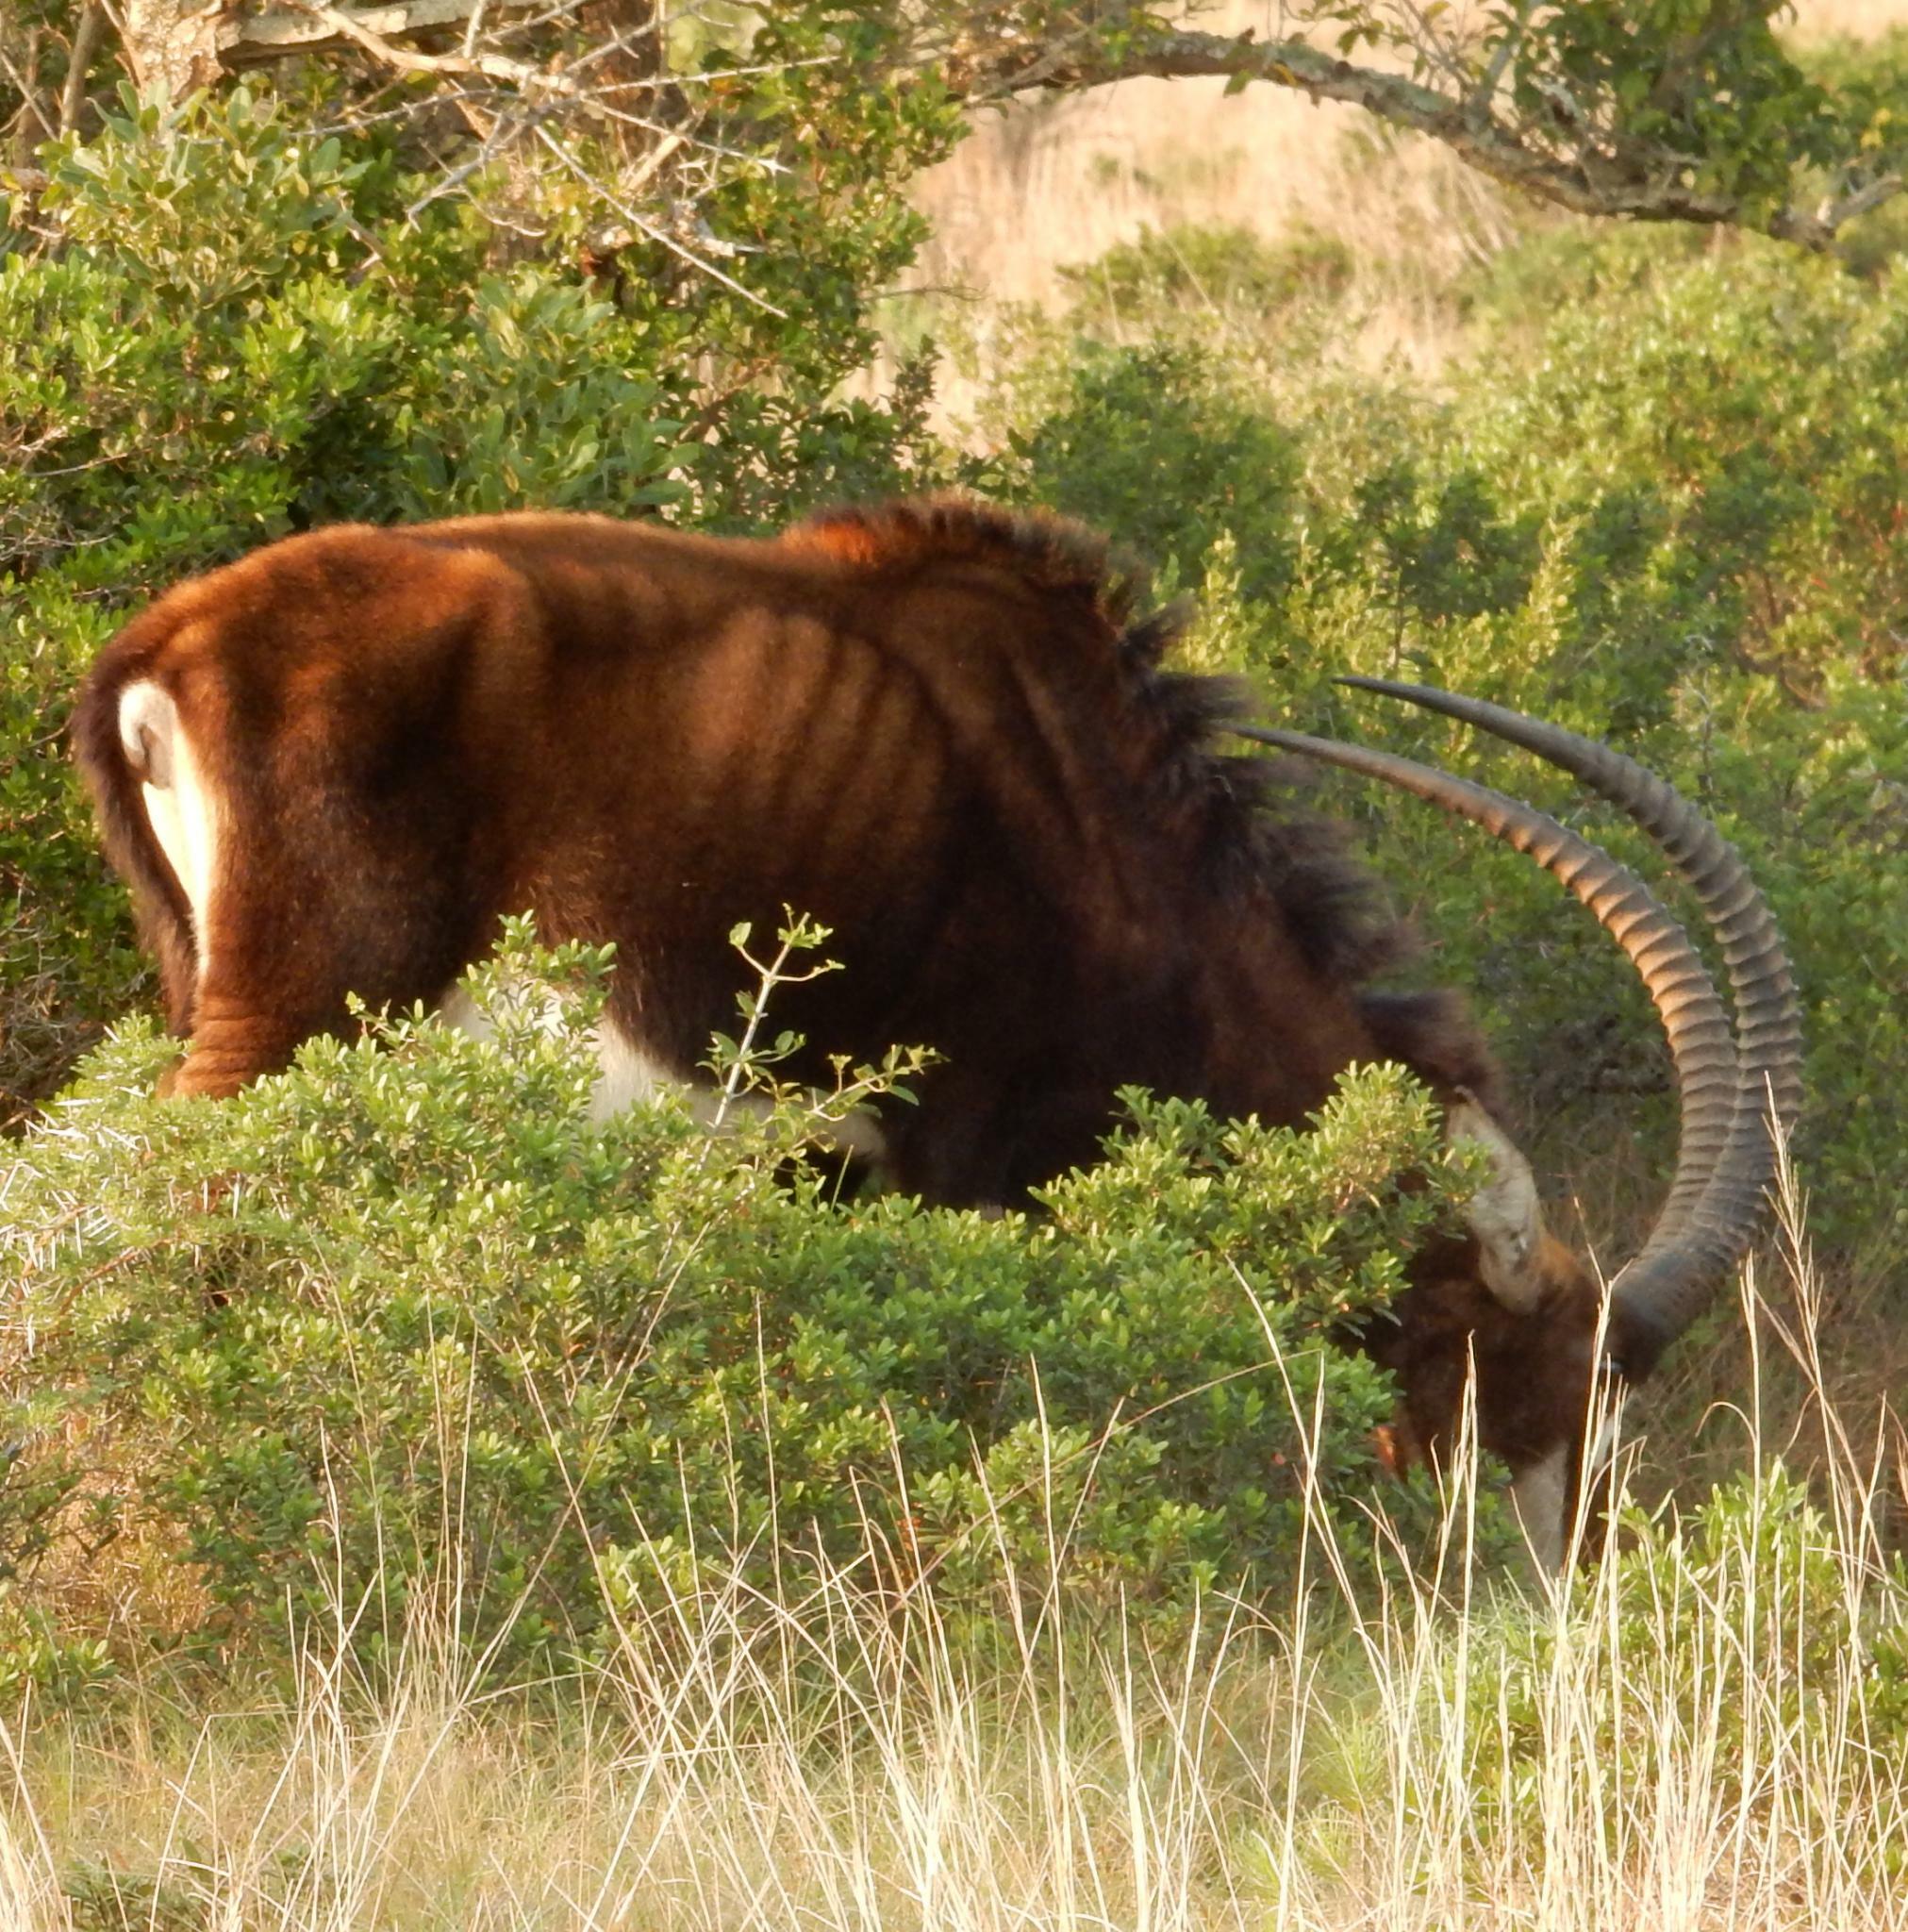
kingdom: Animalia
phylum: Chordata
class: Mammalia
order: Artiodactyla
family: Bovidae
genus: Hippotragus
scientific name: Hippotragus niger
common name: Sable antelope
